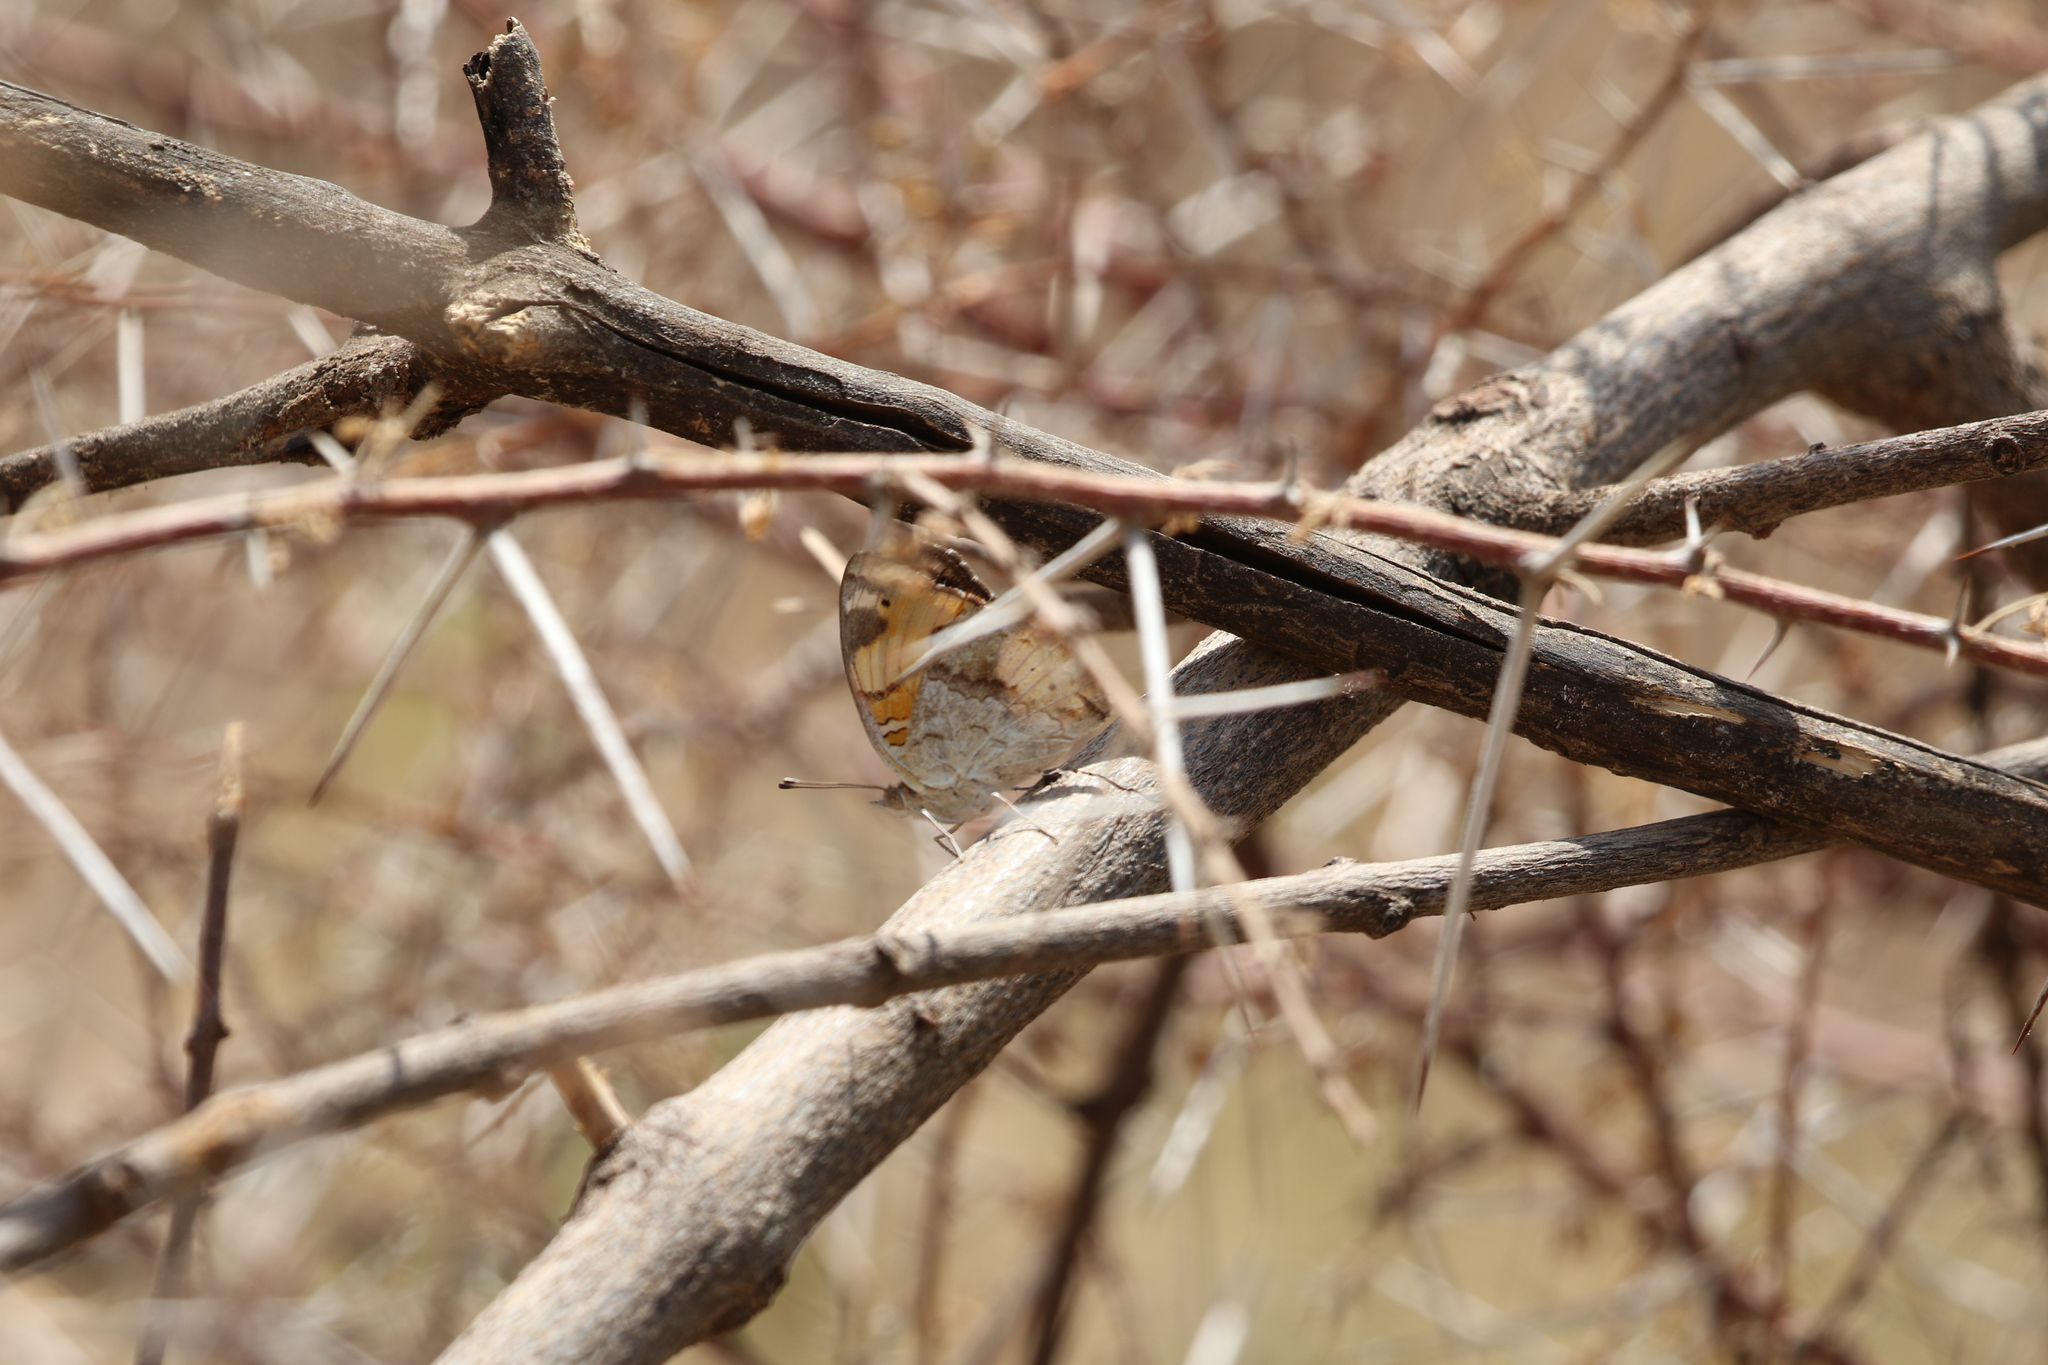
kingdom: Animalia
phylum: Arthropoda
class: Insecta
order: Lepidoptera
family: Nymphalidae
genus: Junonia
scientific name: Junonia hierta
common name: Yellow pansy
